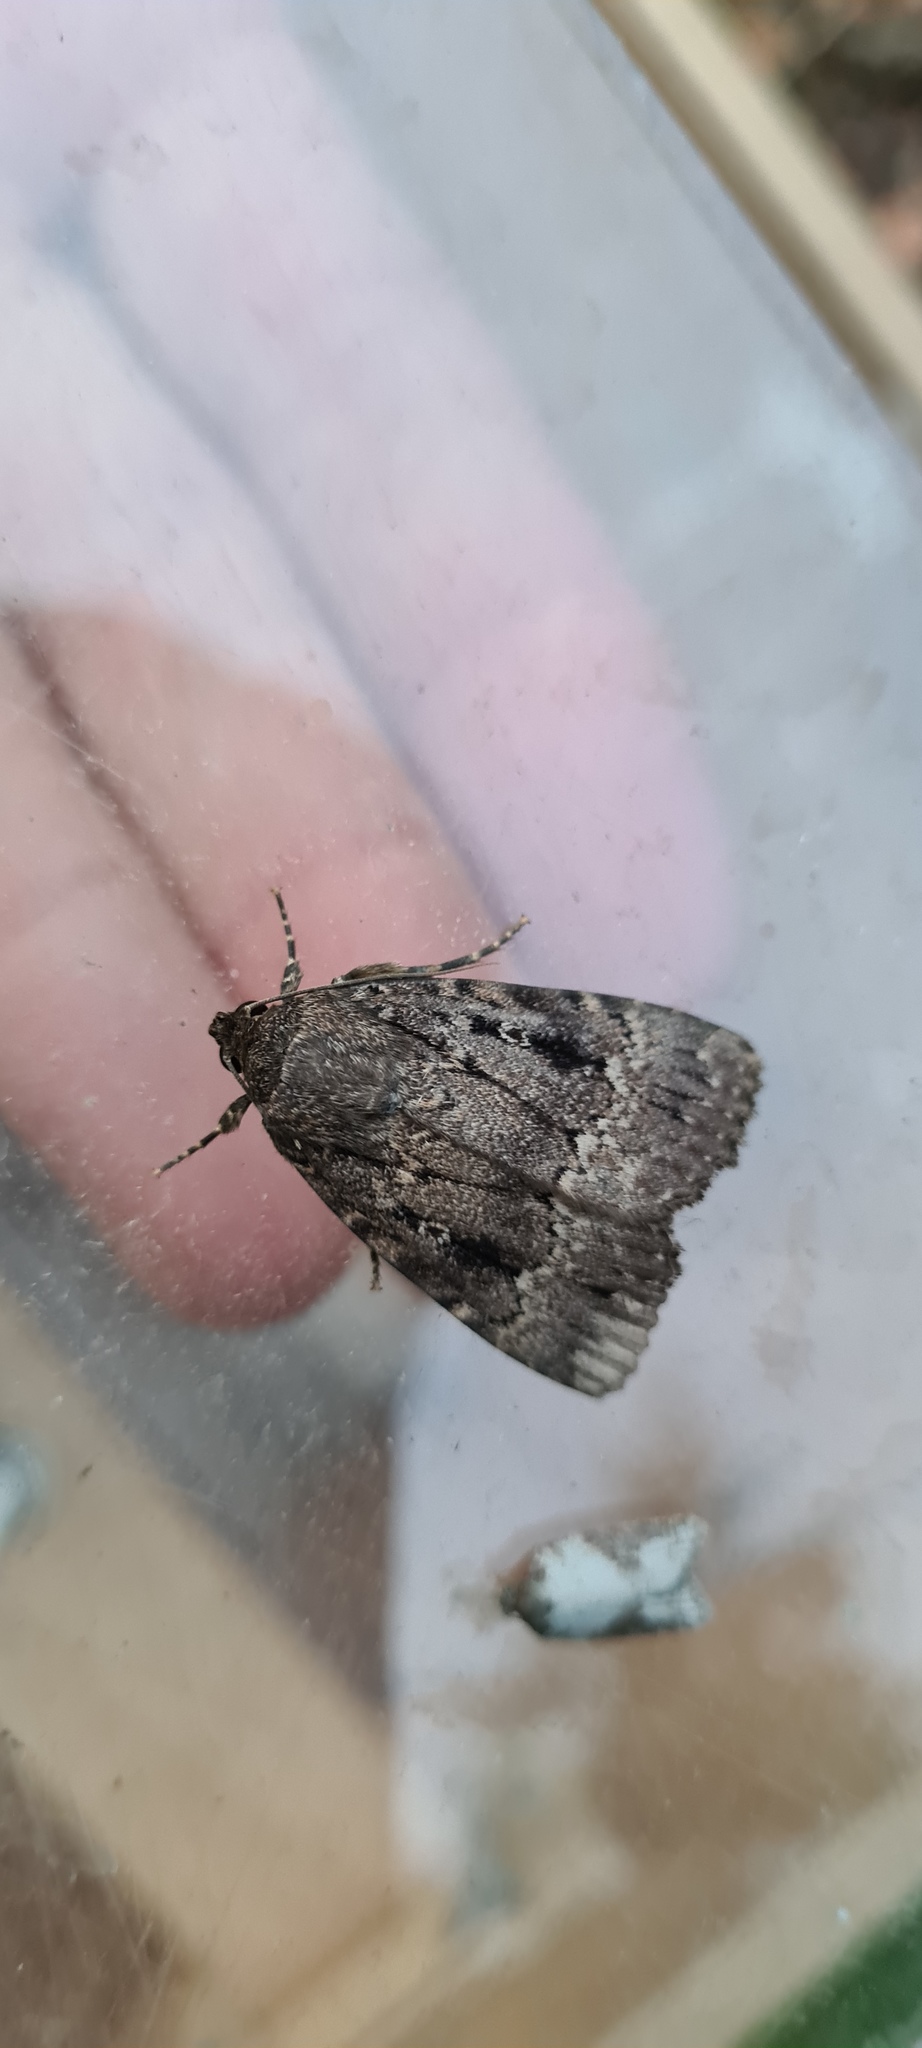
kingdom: Animalia
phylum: Arthropoda
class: Insecta
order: Lepidoptera
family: Noctuidae
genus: Amphipyra
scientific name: Amphipyra pyramidea
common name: Copper underwing
